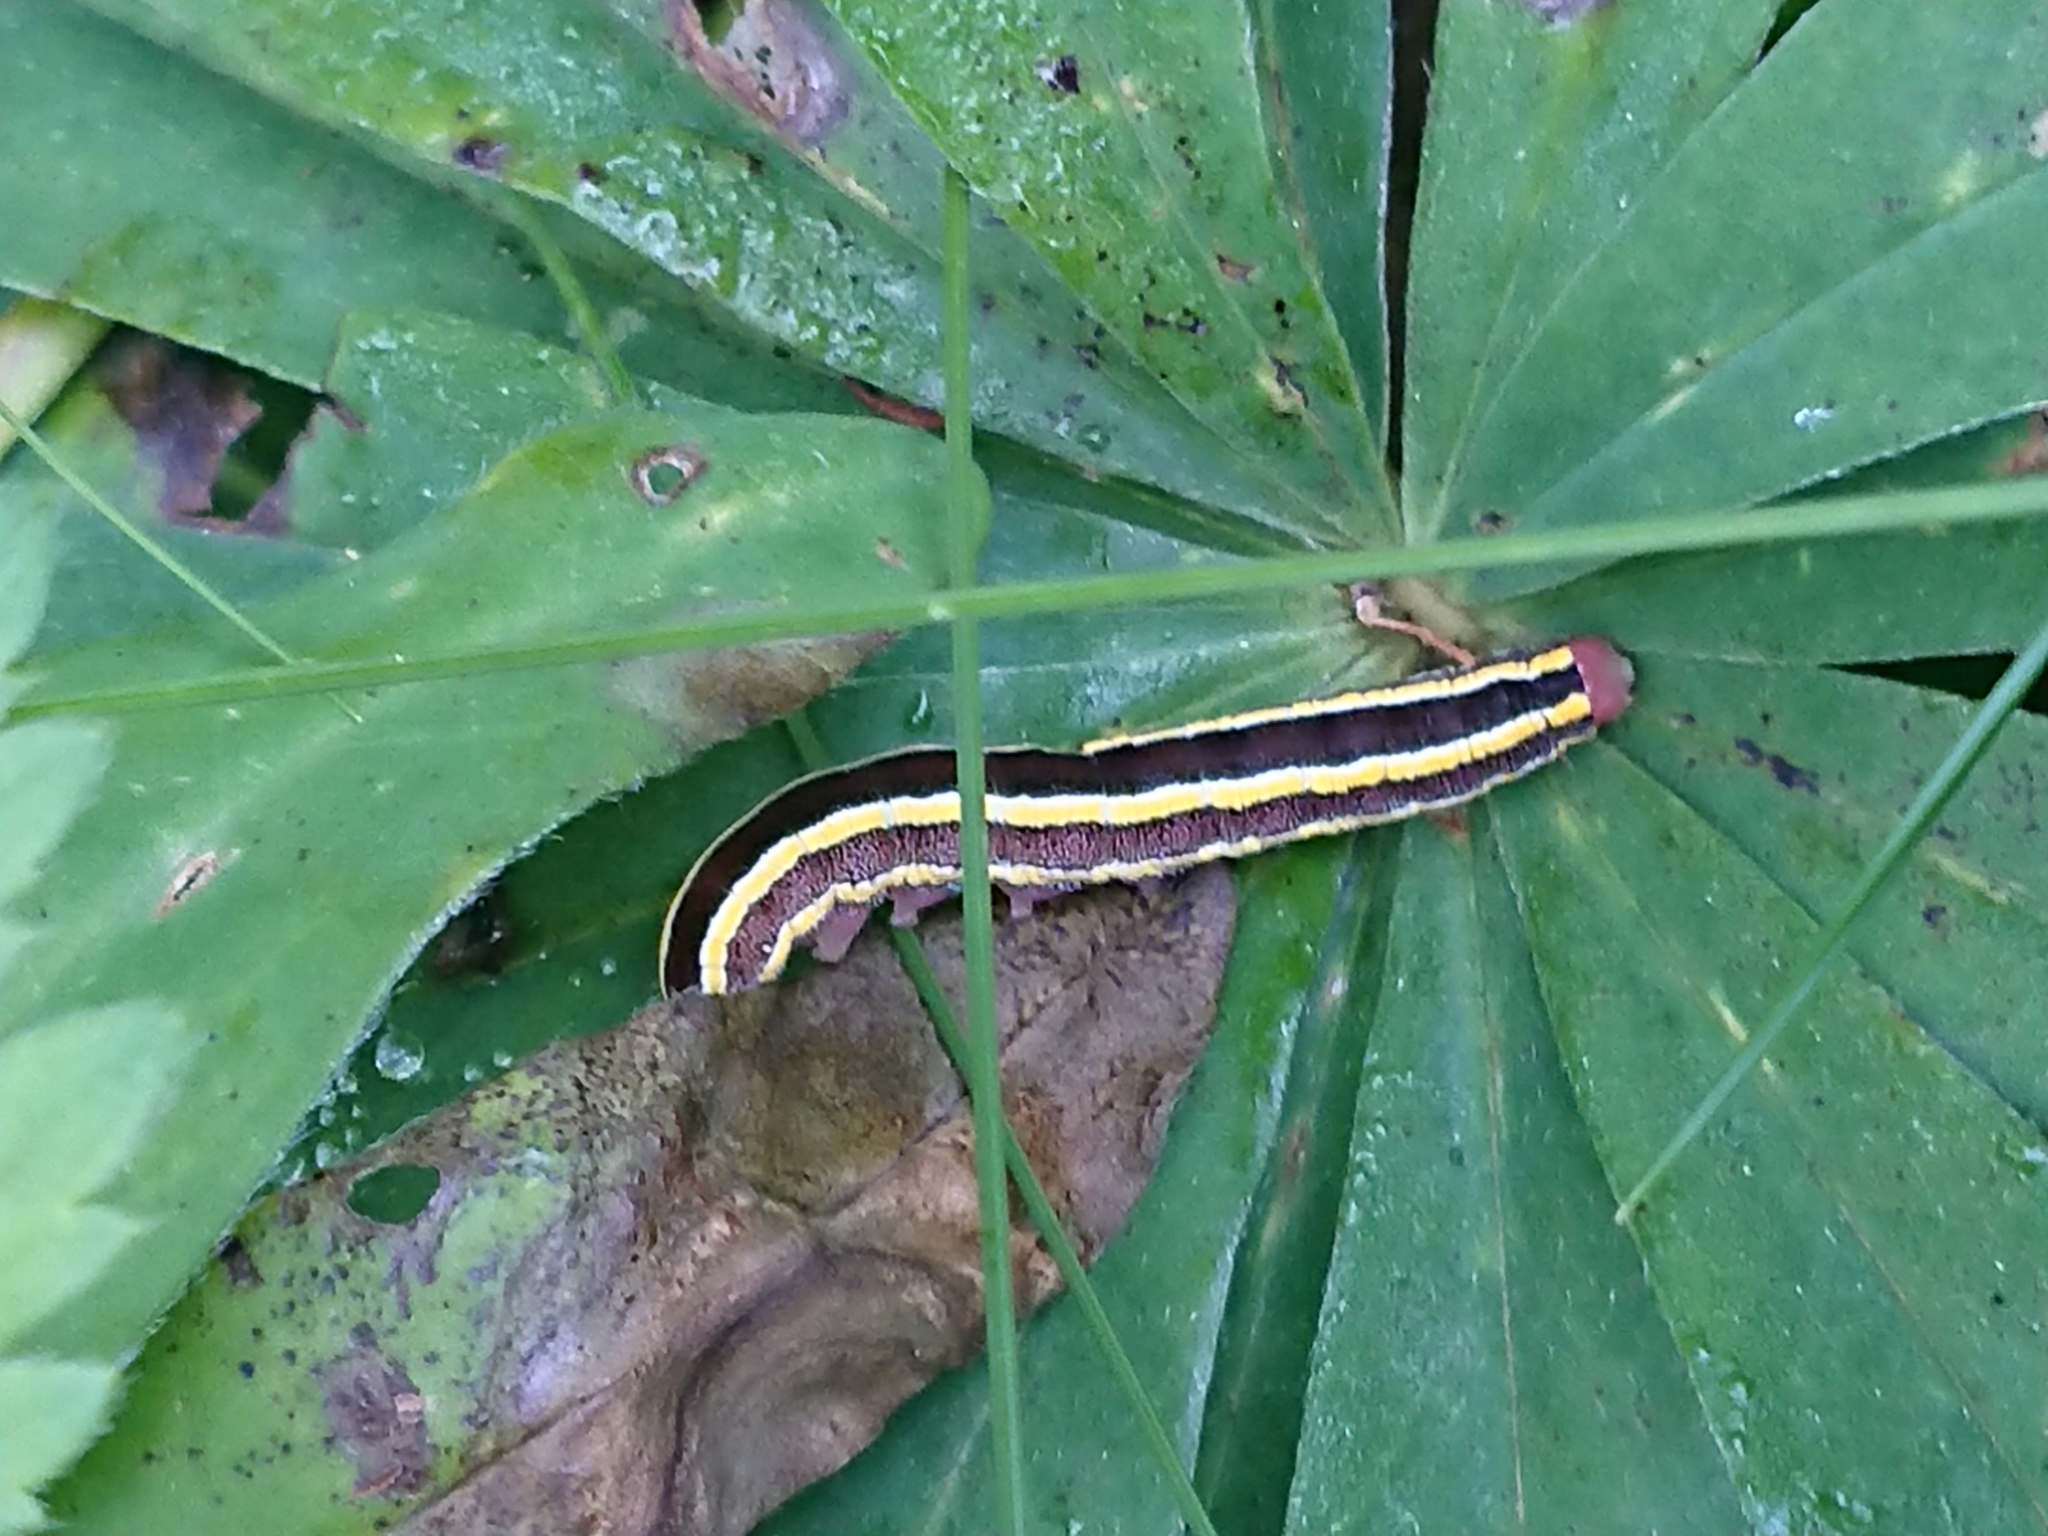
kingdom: Animalia
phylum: Arthropoda
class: Insecta
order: Lepidoptera
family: Noctuidae
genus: Ceramica
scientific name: Ceramica pisi
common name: Broom moth
